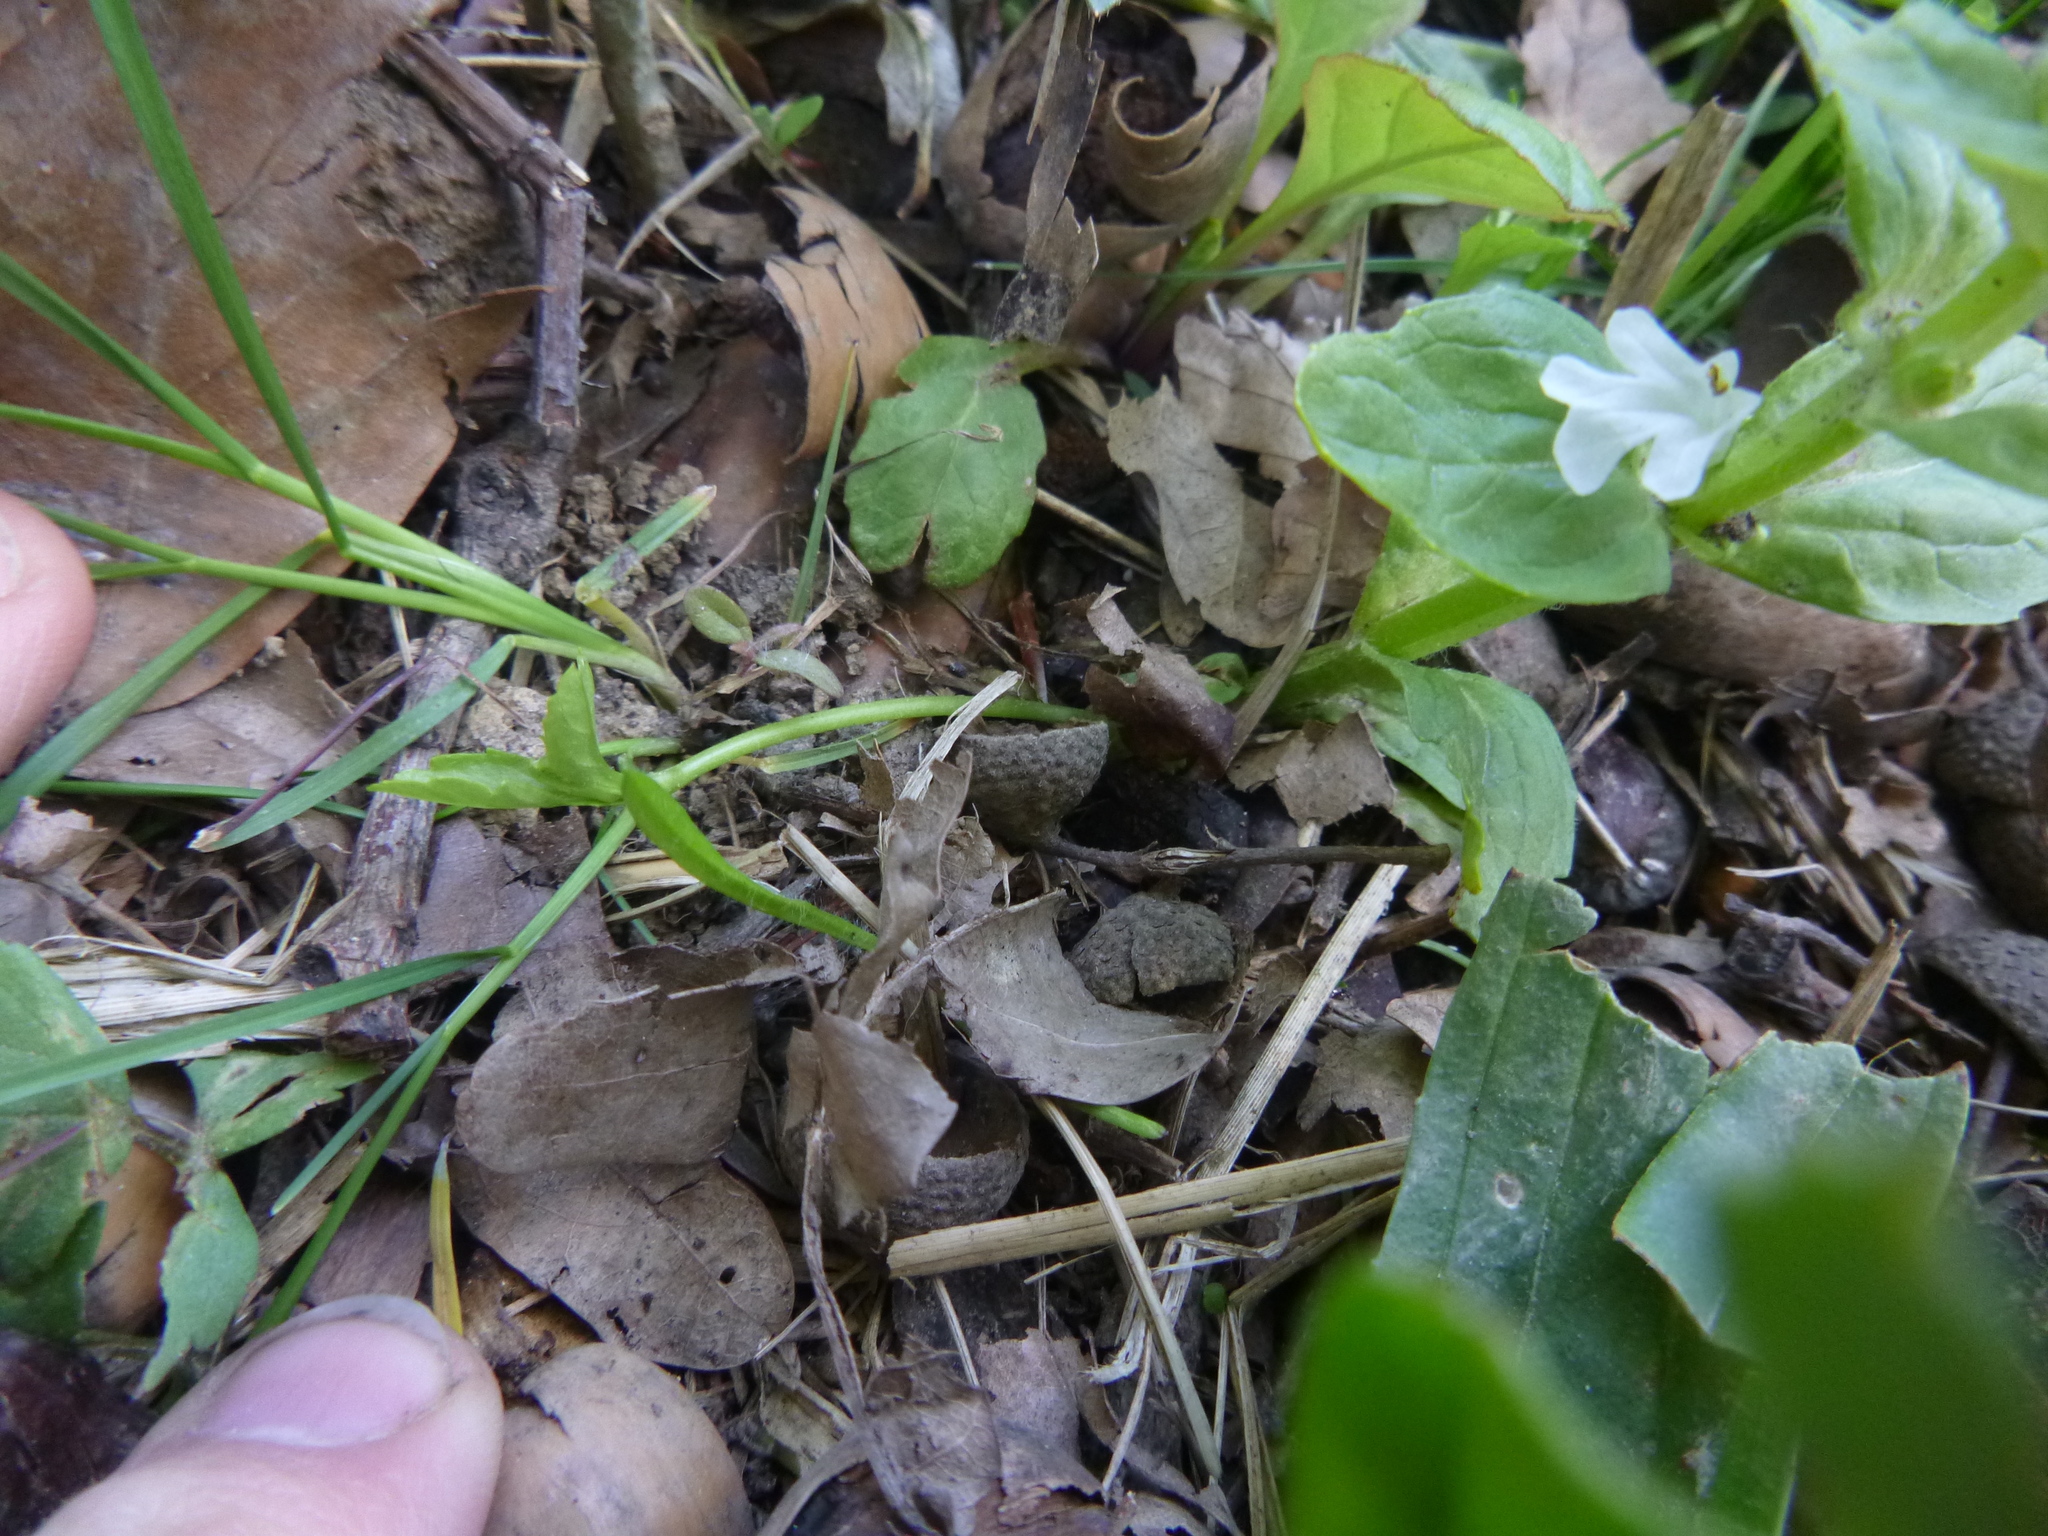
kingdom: Plantae
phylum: Tracheophyta
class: Magnoliopsida
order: Lamiales
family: Lamiaceae
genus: Ajuga
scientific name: Ajuga reptans
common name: Bugle
